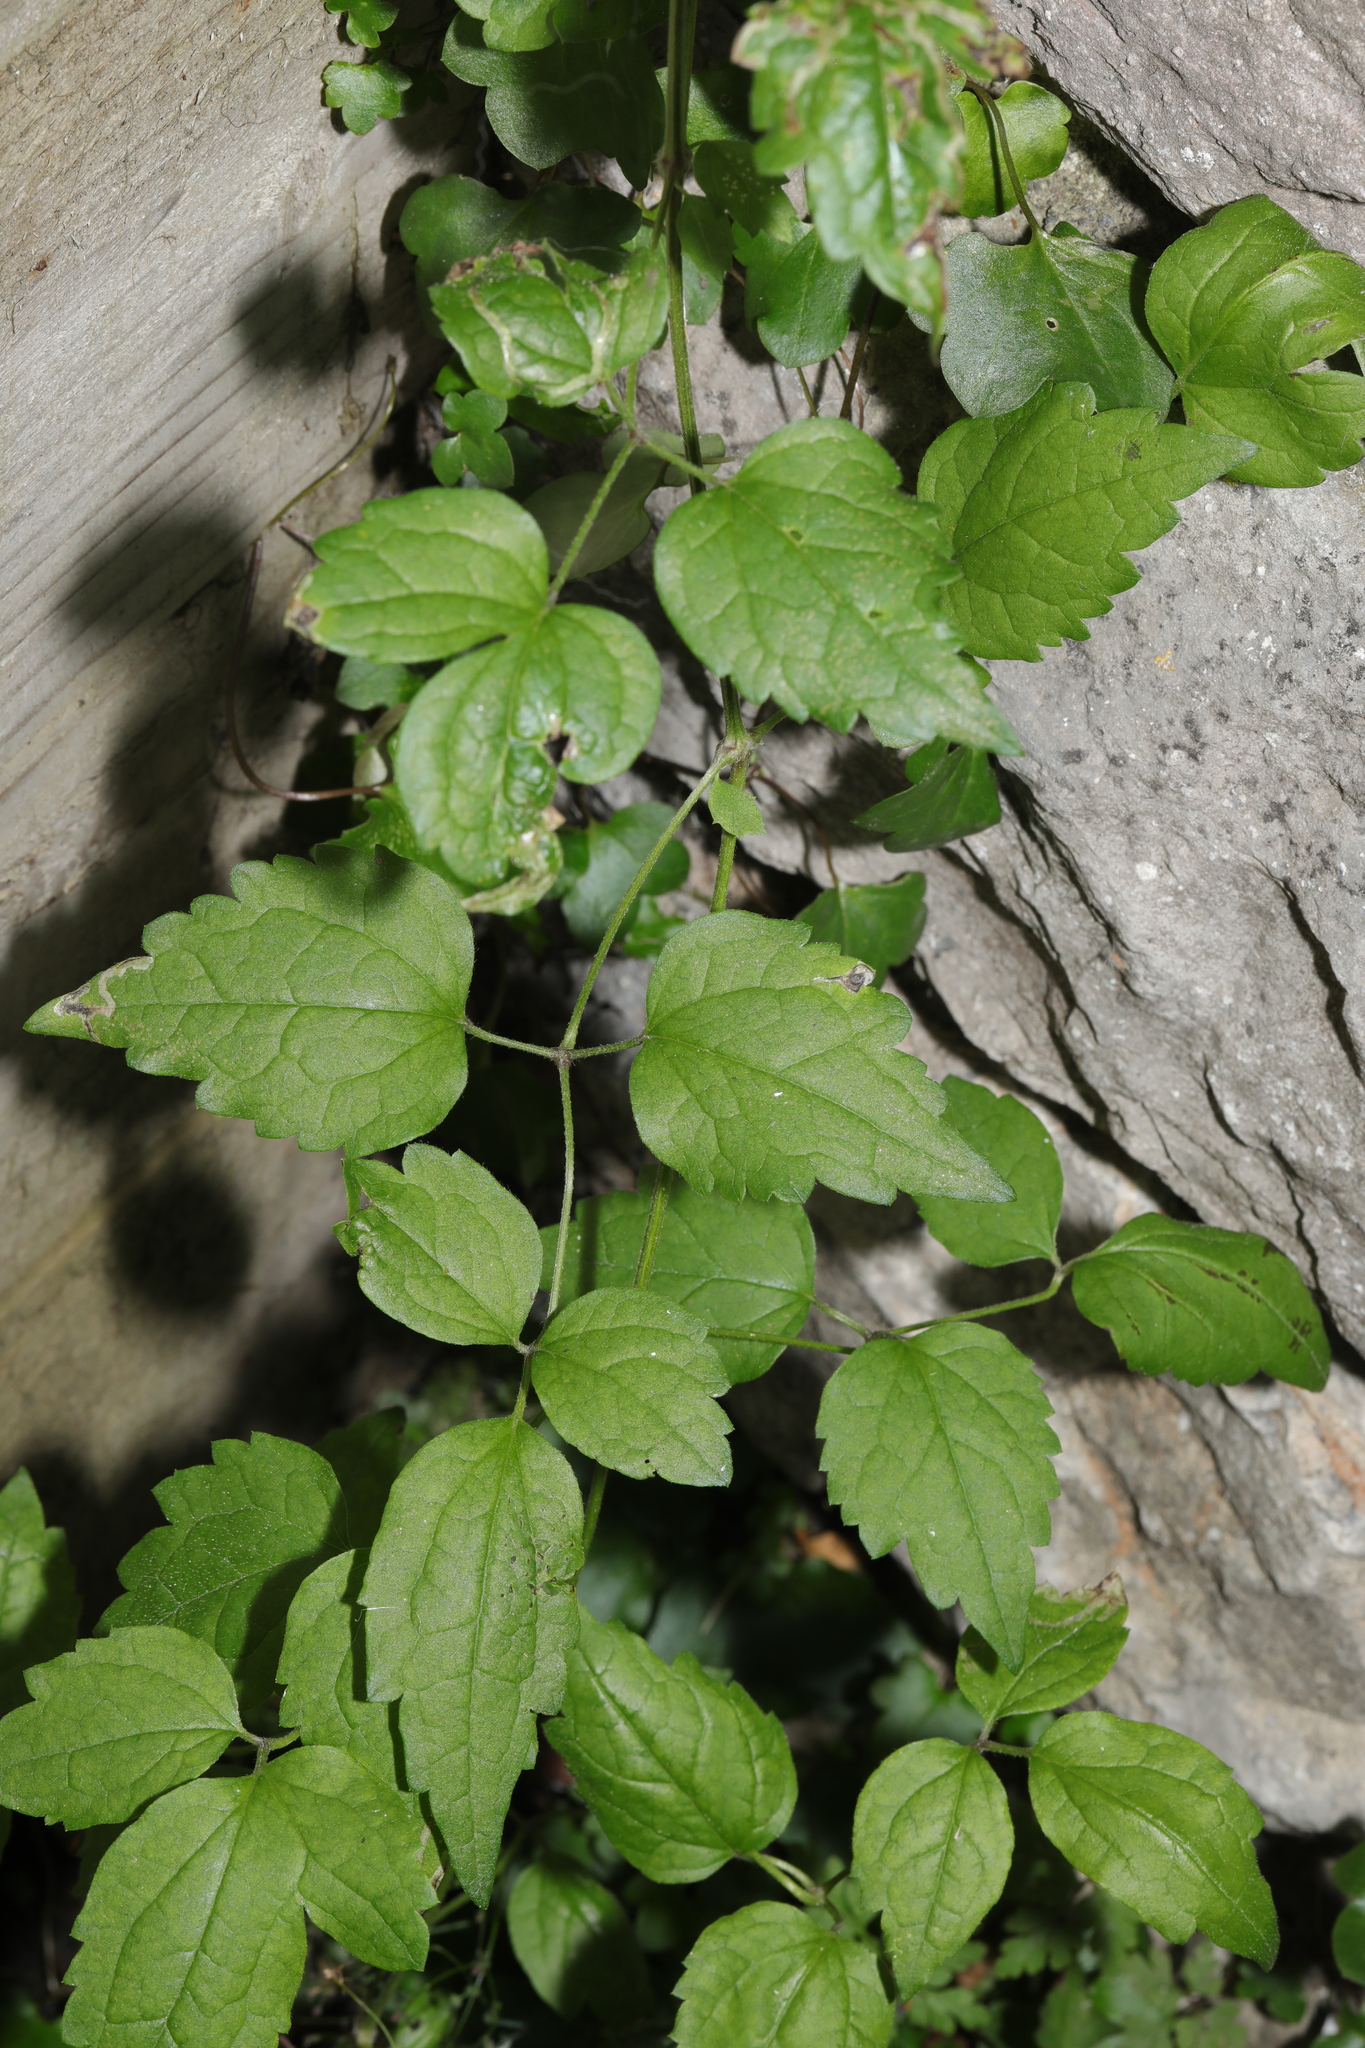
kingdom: Plantae
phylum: Tracheophyta
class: Magnoliopsida
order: Ranunculales
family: Ranunculaceae
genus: Clematis
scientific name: Clematis vitalba
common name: Evergreen clematis
